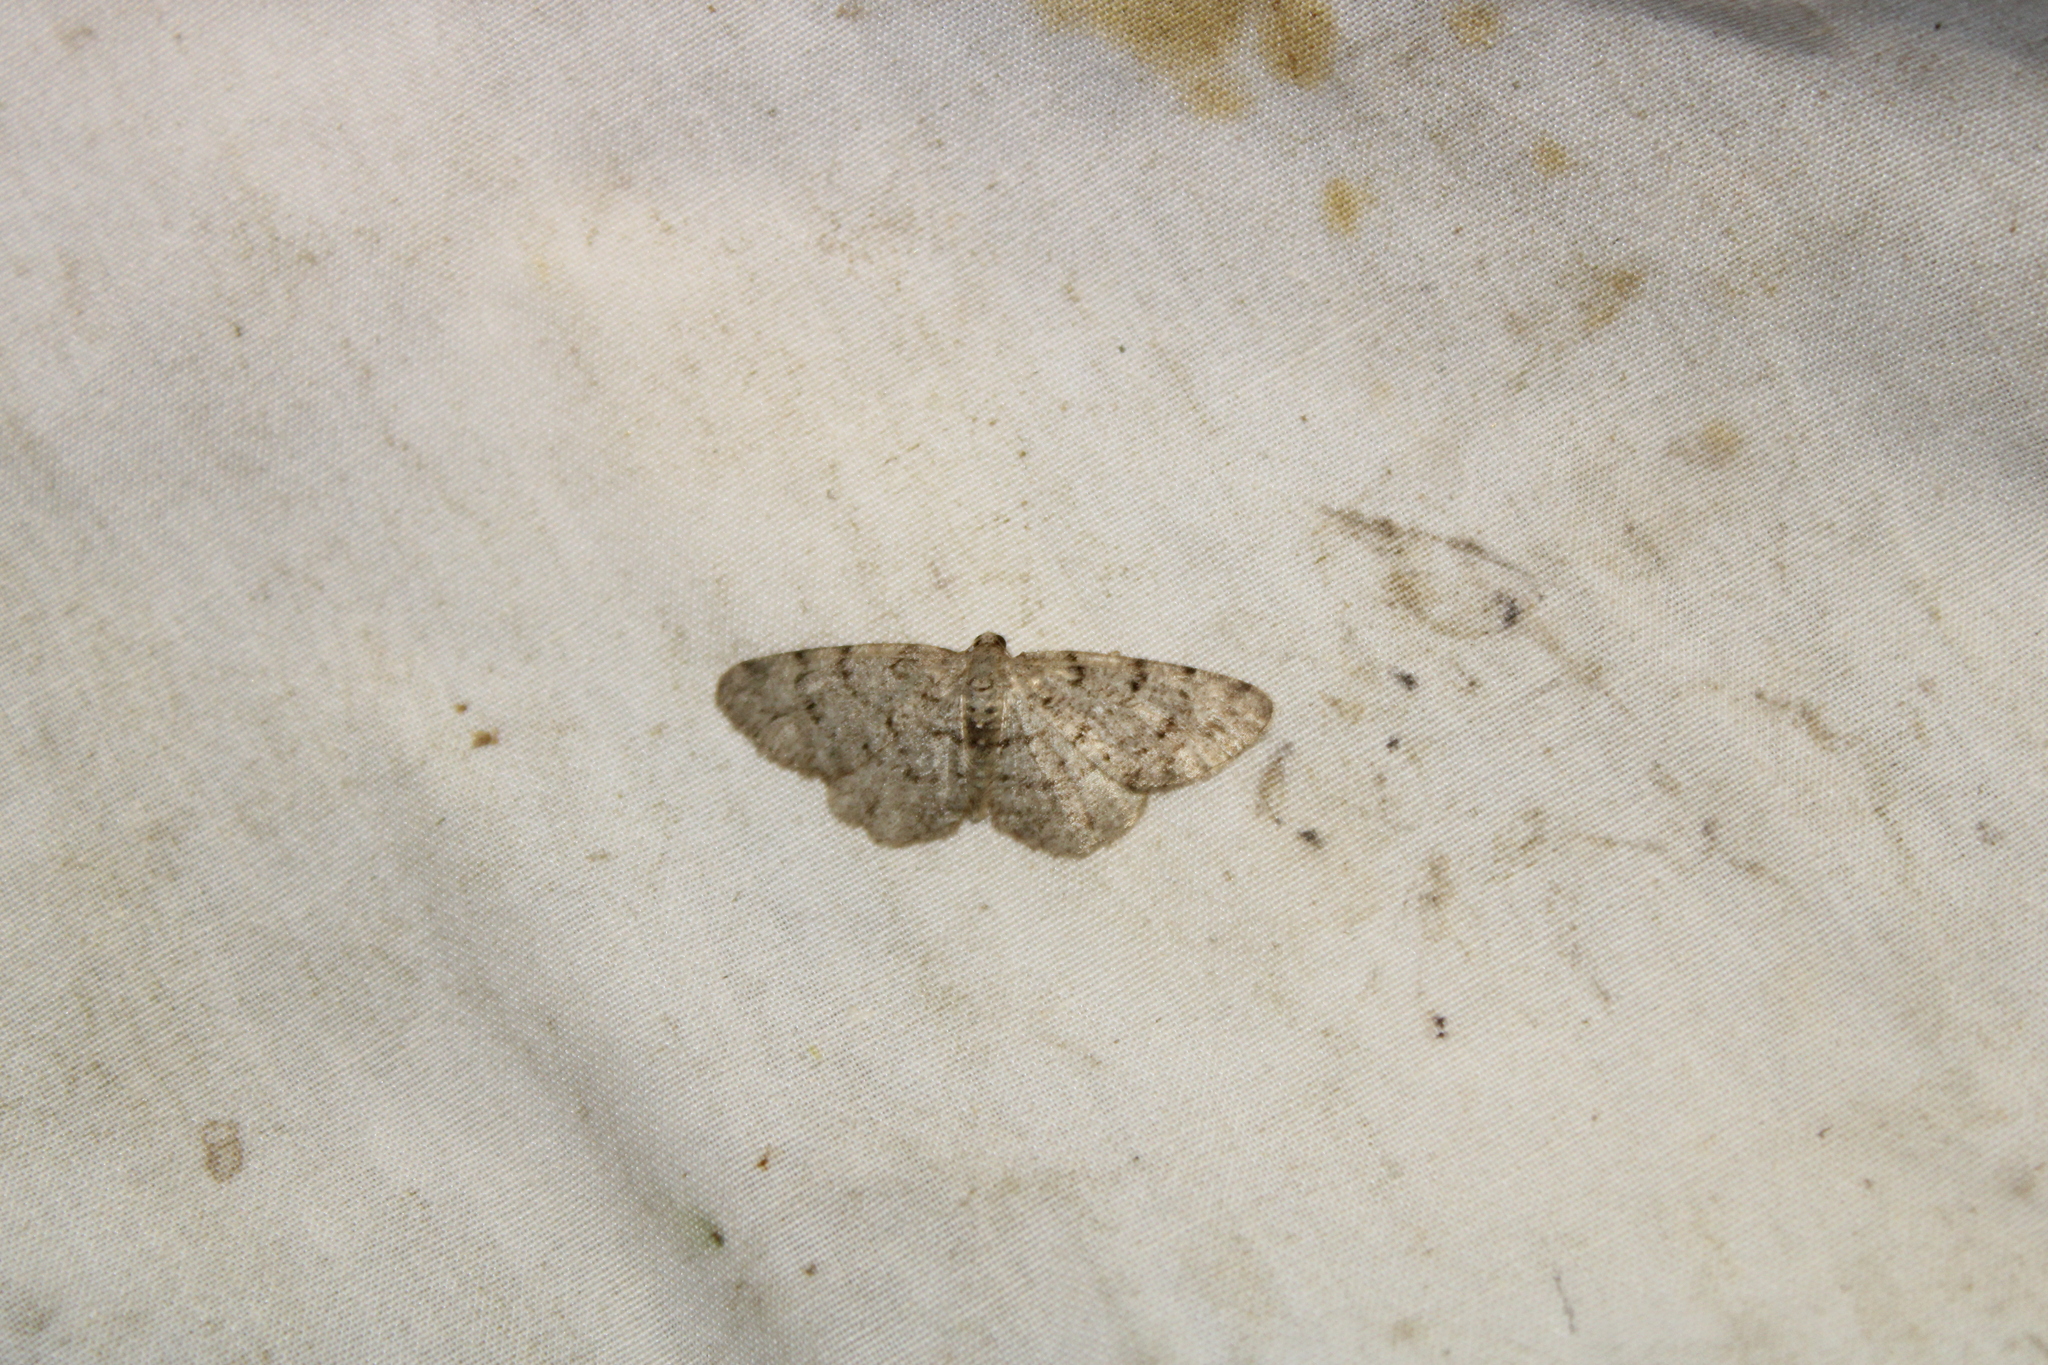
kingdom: Animalia
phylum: Arthropoda
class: Insecta
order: Lepidoptera
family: Geometridae
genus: Aethalura
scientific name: Aethalura intertexta
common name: Four-barred gray
